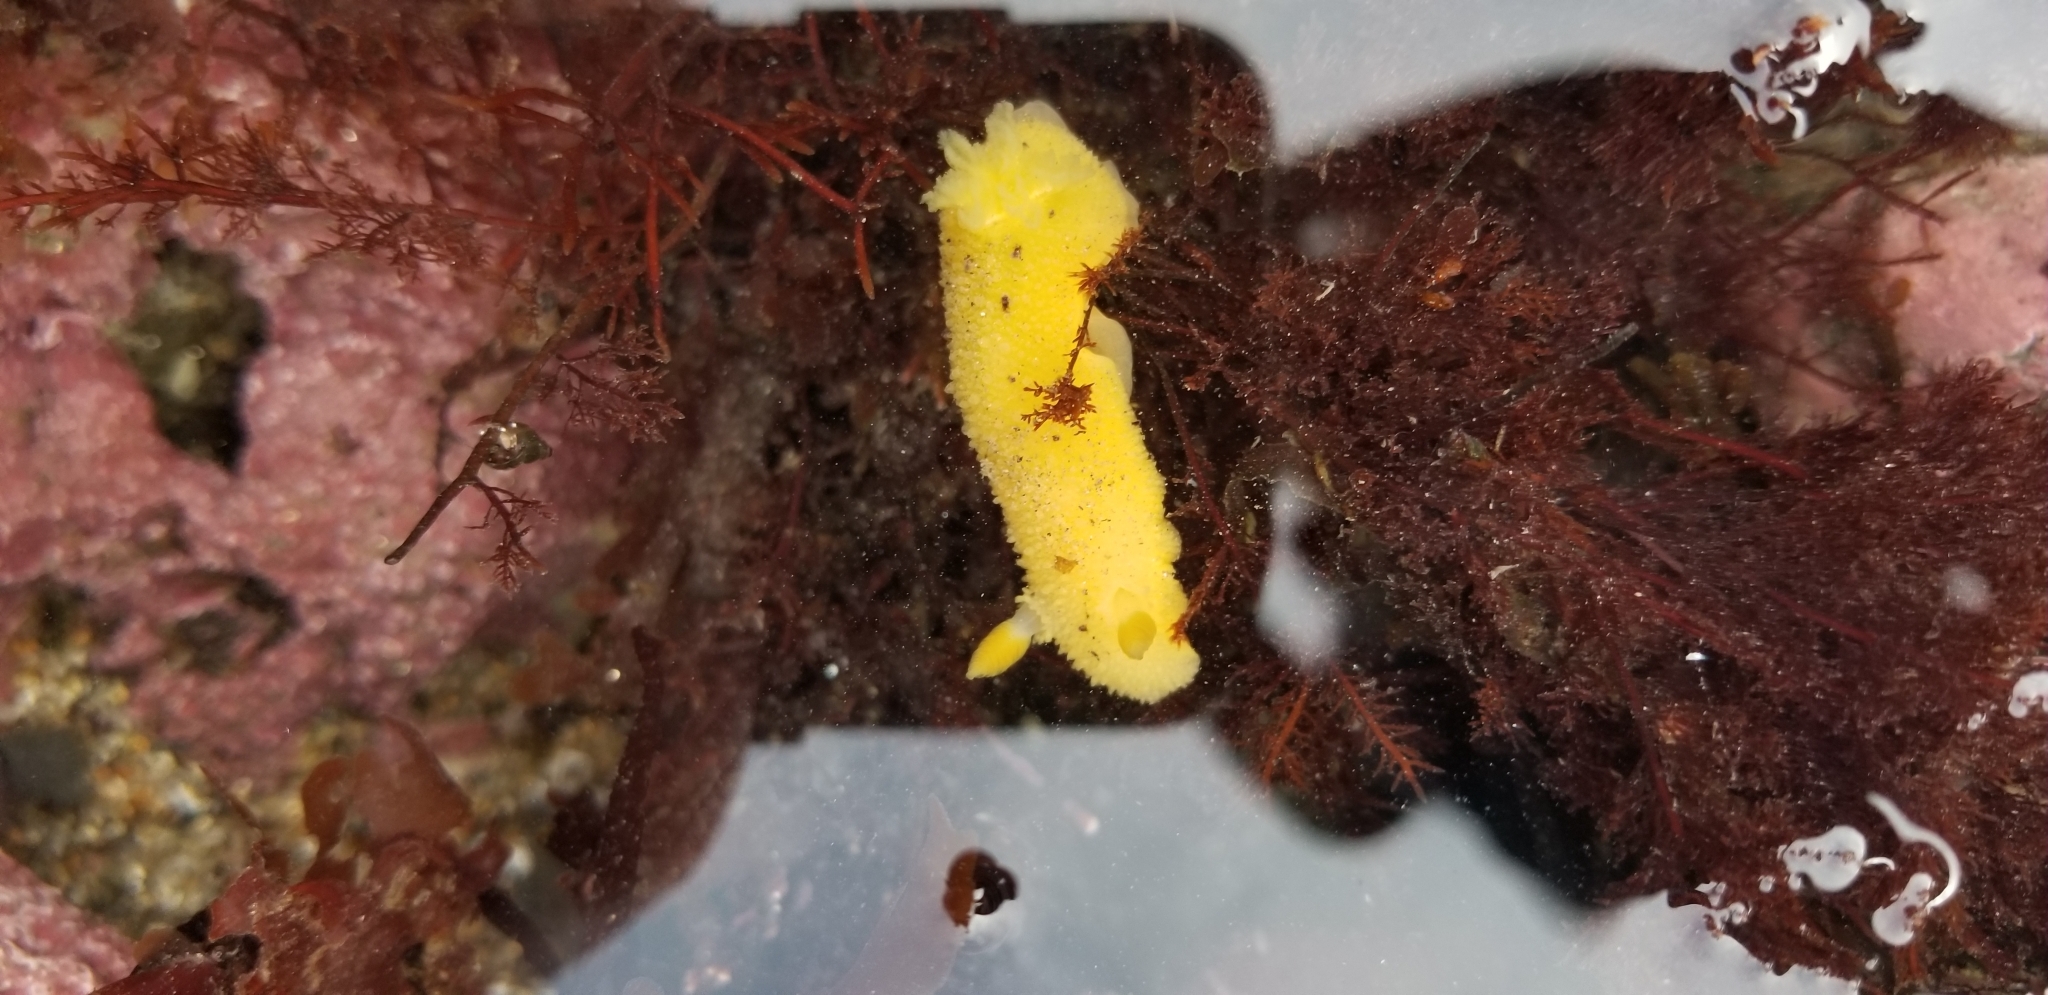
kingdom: Animalia
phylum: Mollusca
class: Gastropoda
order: Nudibranchia
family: Dorididae
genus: Doris
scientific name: Doris montereyensis
